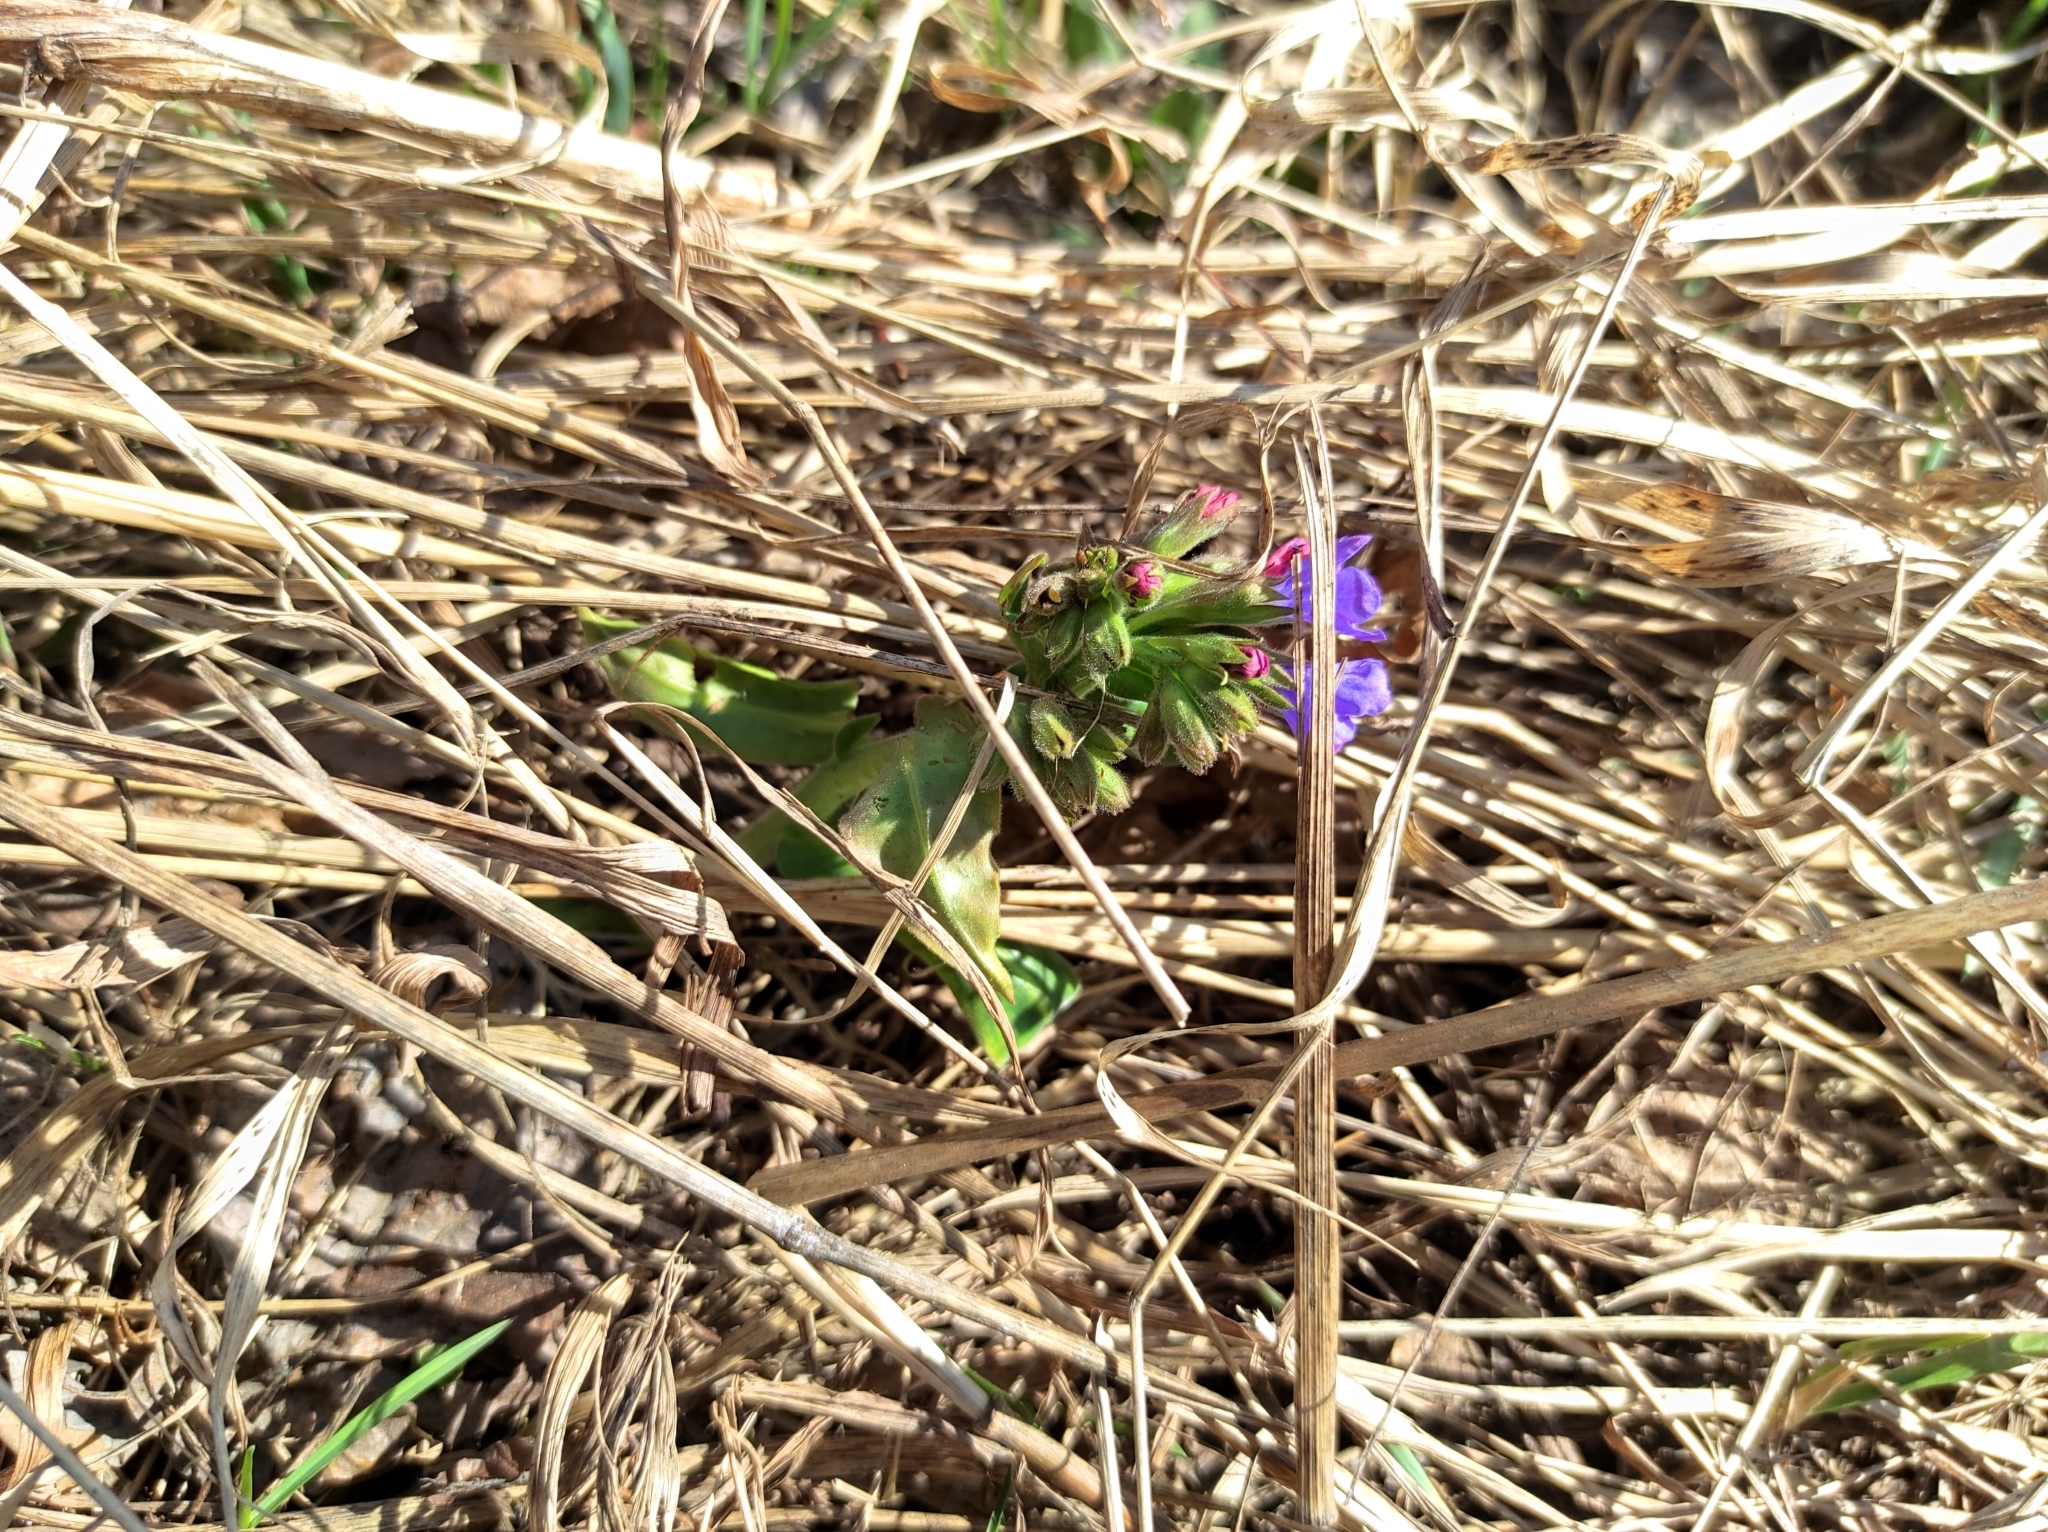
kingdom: Plantae
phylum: Tracheophyta
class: Magnoliopsida
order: Boraginales
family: Boraginaceae
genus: Pulmonaria
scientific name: Pulmonaria mollis
